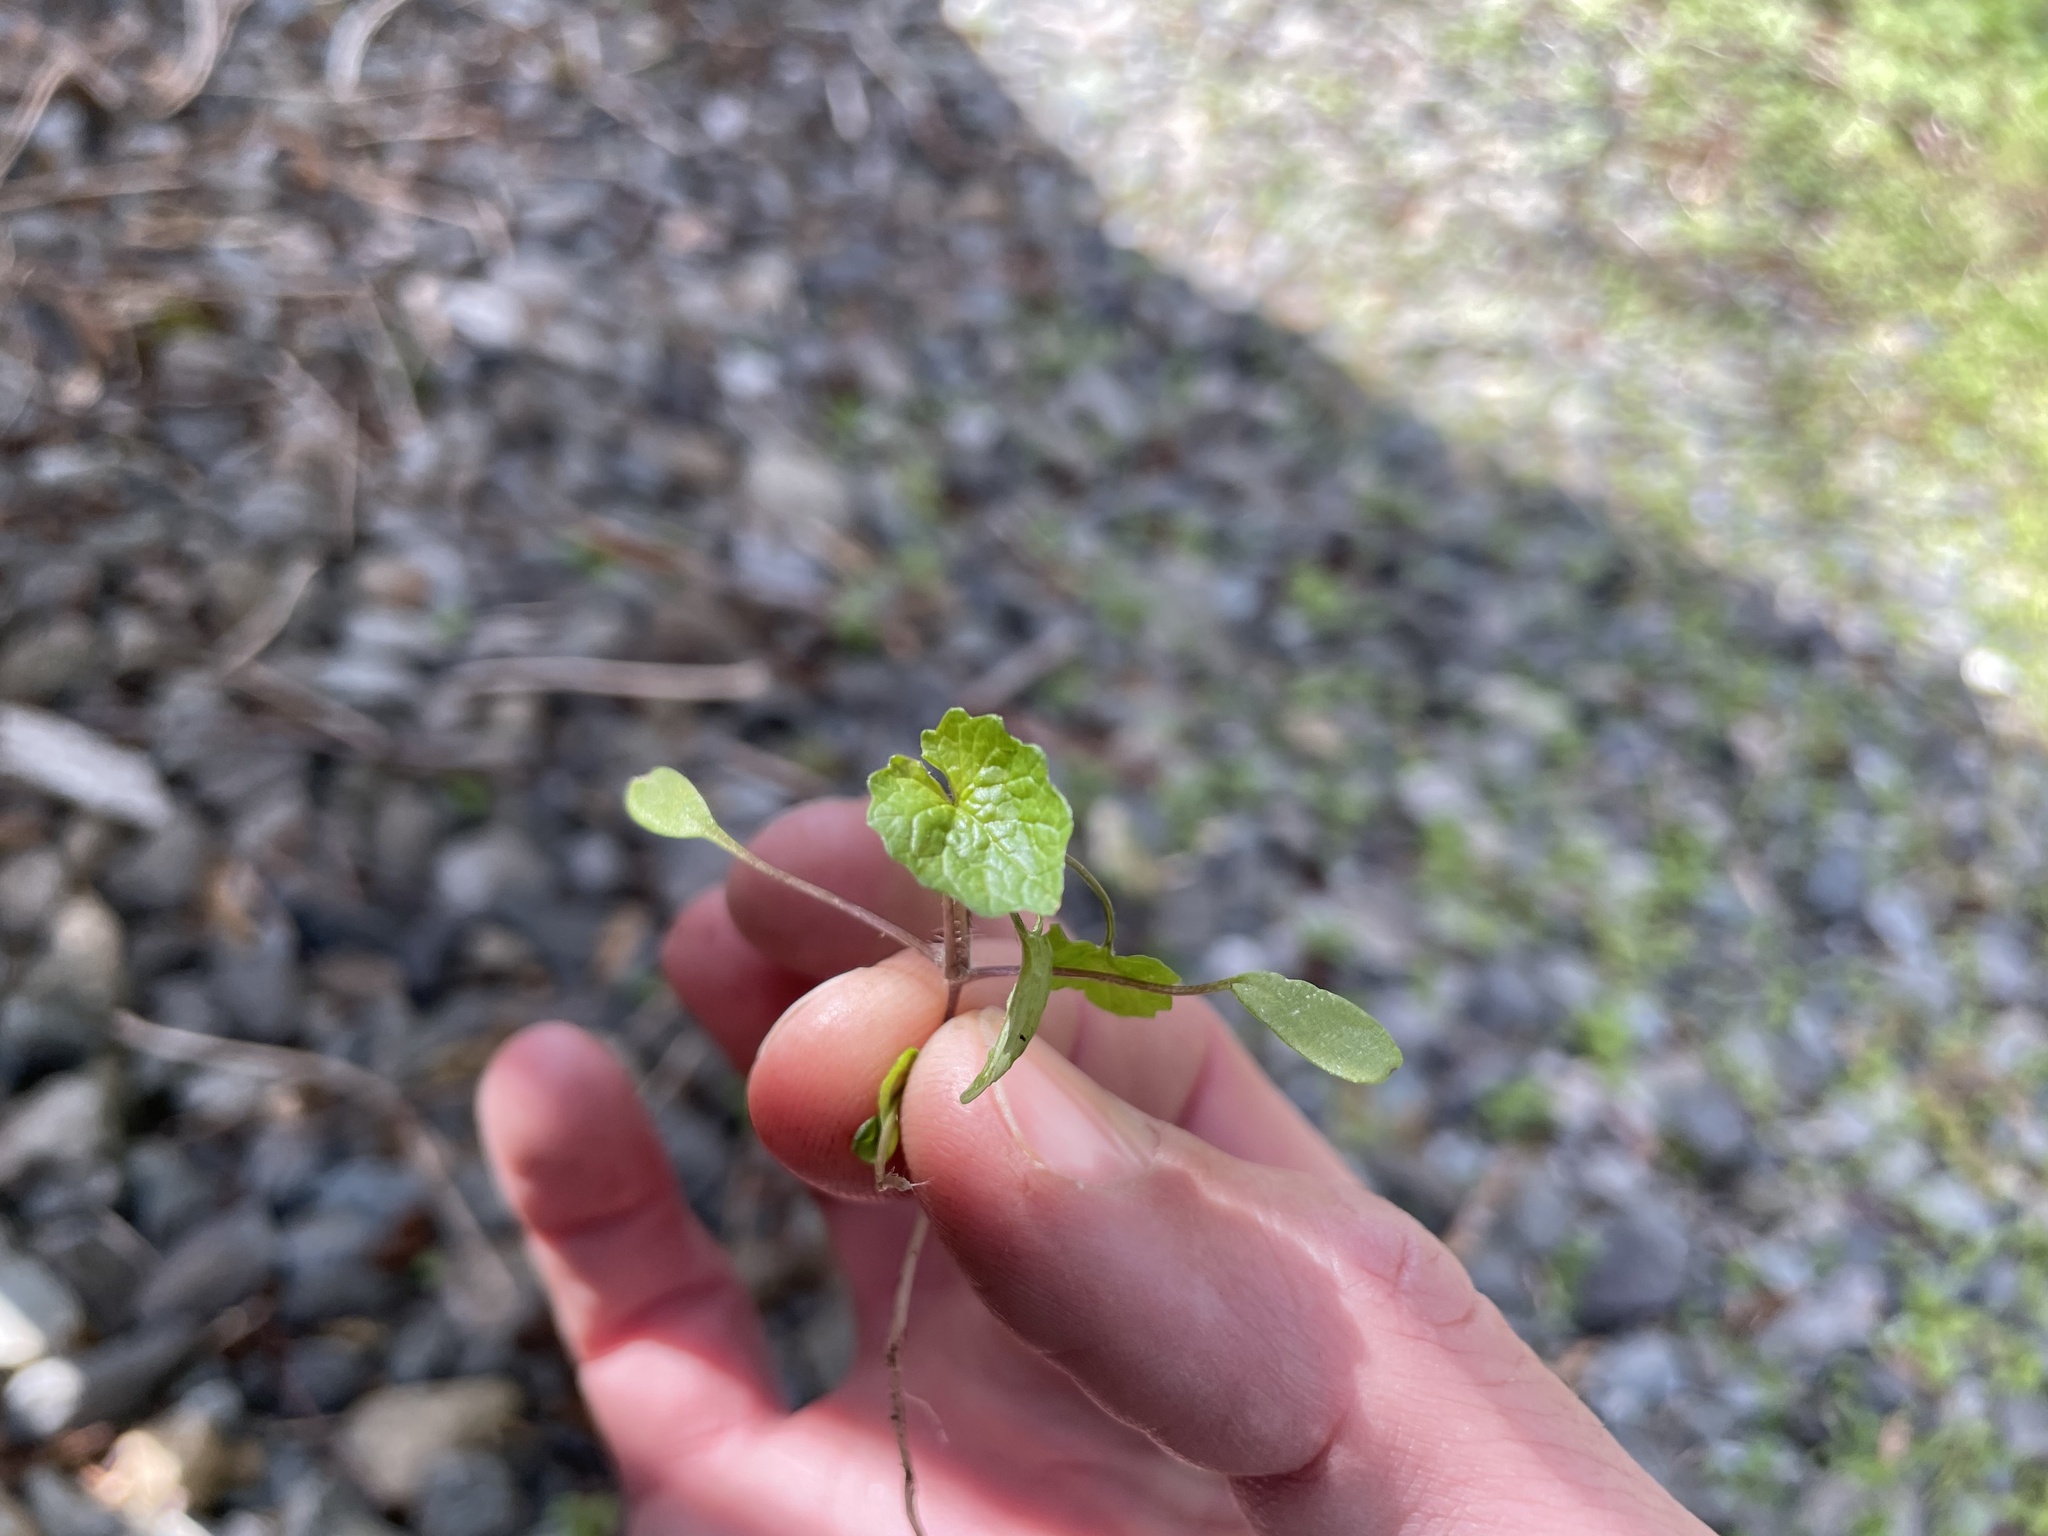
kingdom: Plantae
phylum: Tracheophyta
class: Magnoliopsida
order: Brassicales
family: Brassicaceae
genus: Alliaria
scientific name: Alliaria petiolata
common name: Garlic mustard
